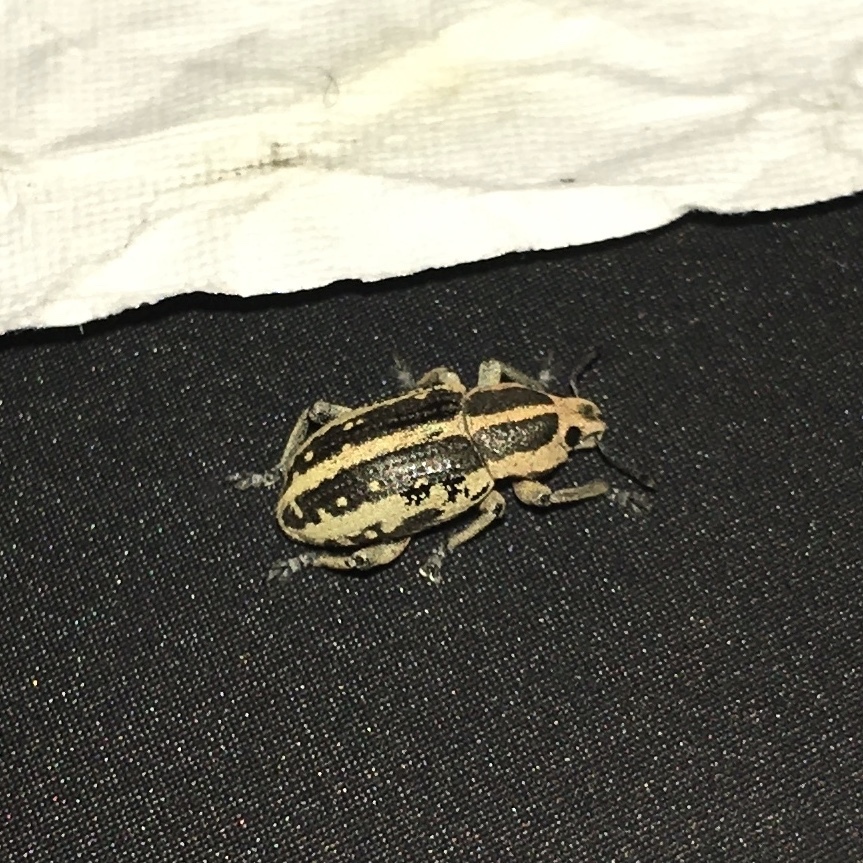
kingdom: Animalia
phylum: Arthropoda
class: Insecta
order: Coleoptera
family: Curculionidae
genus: Eudiagogus
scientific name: Eudiagogus rosenschoeldi
